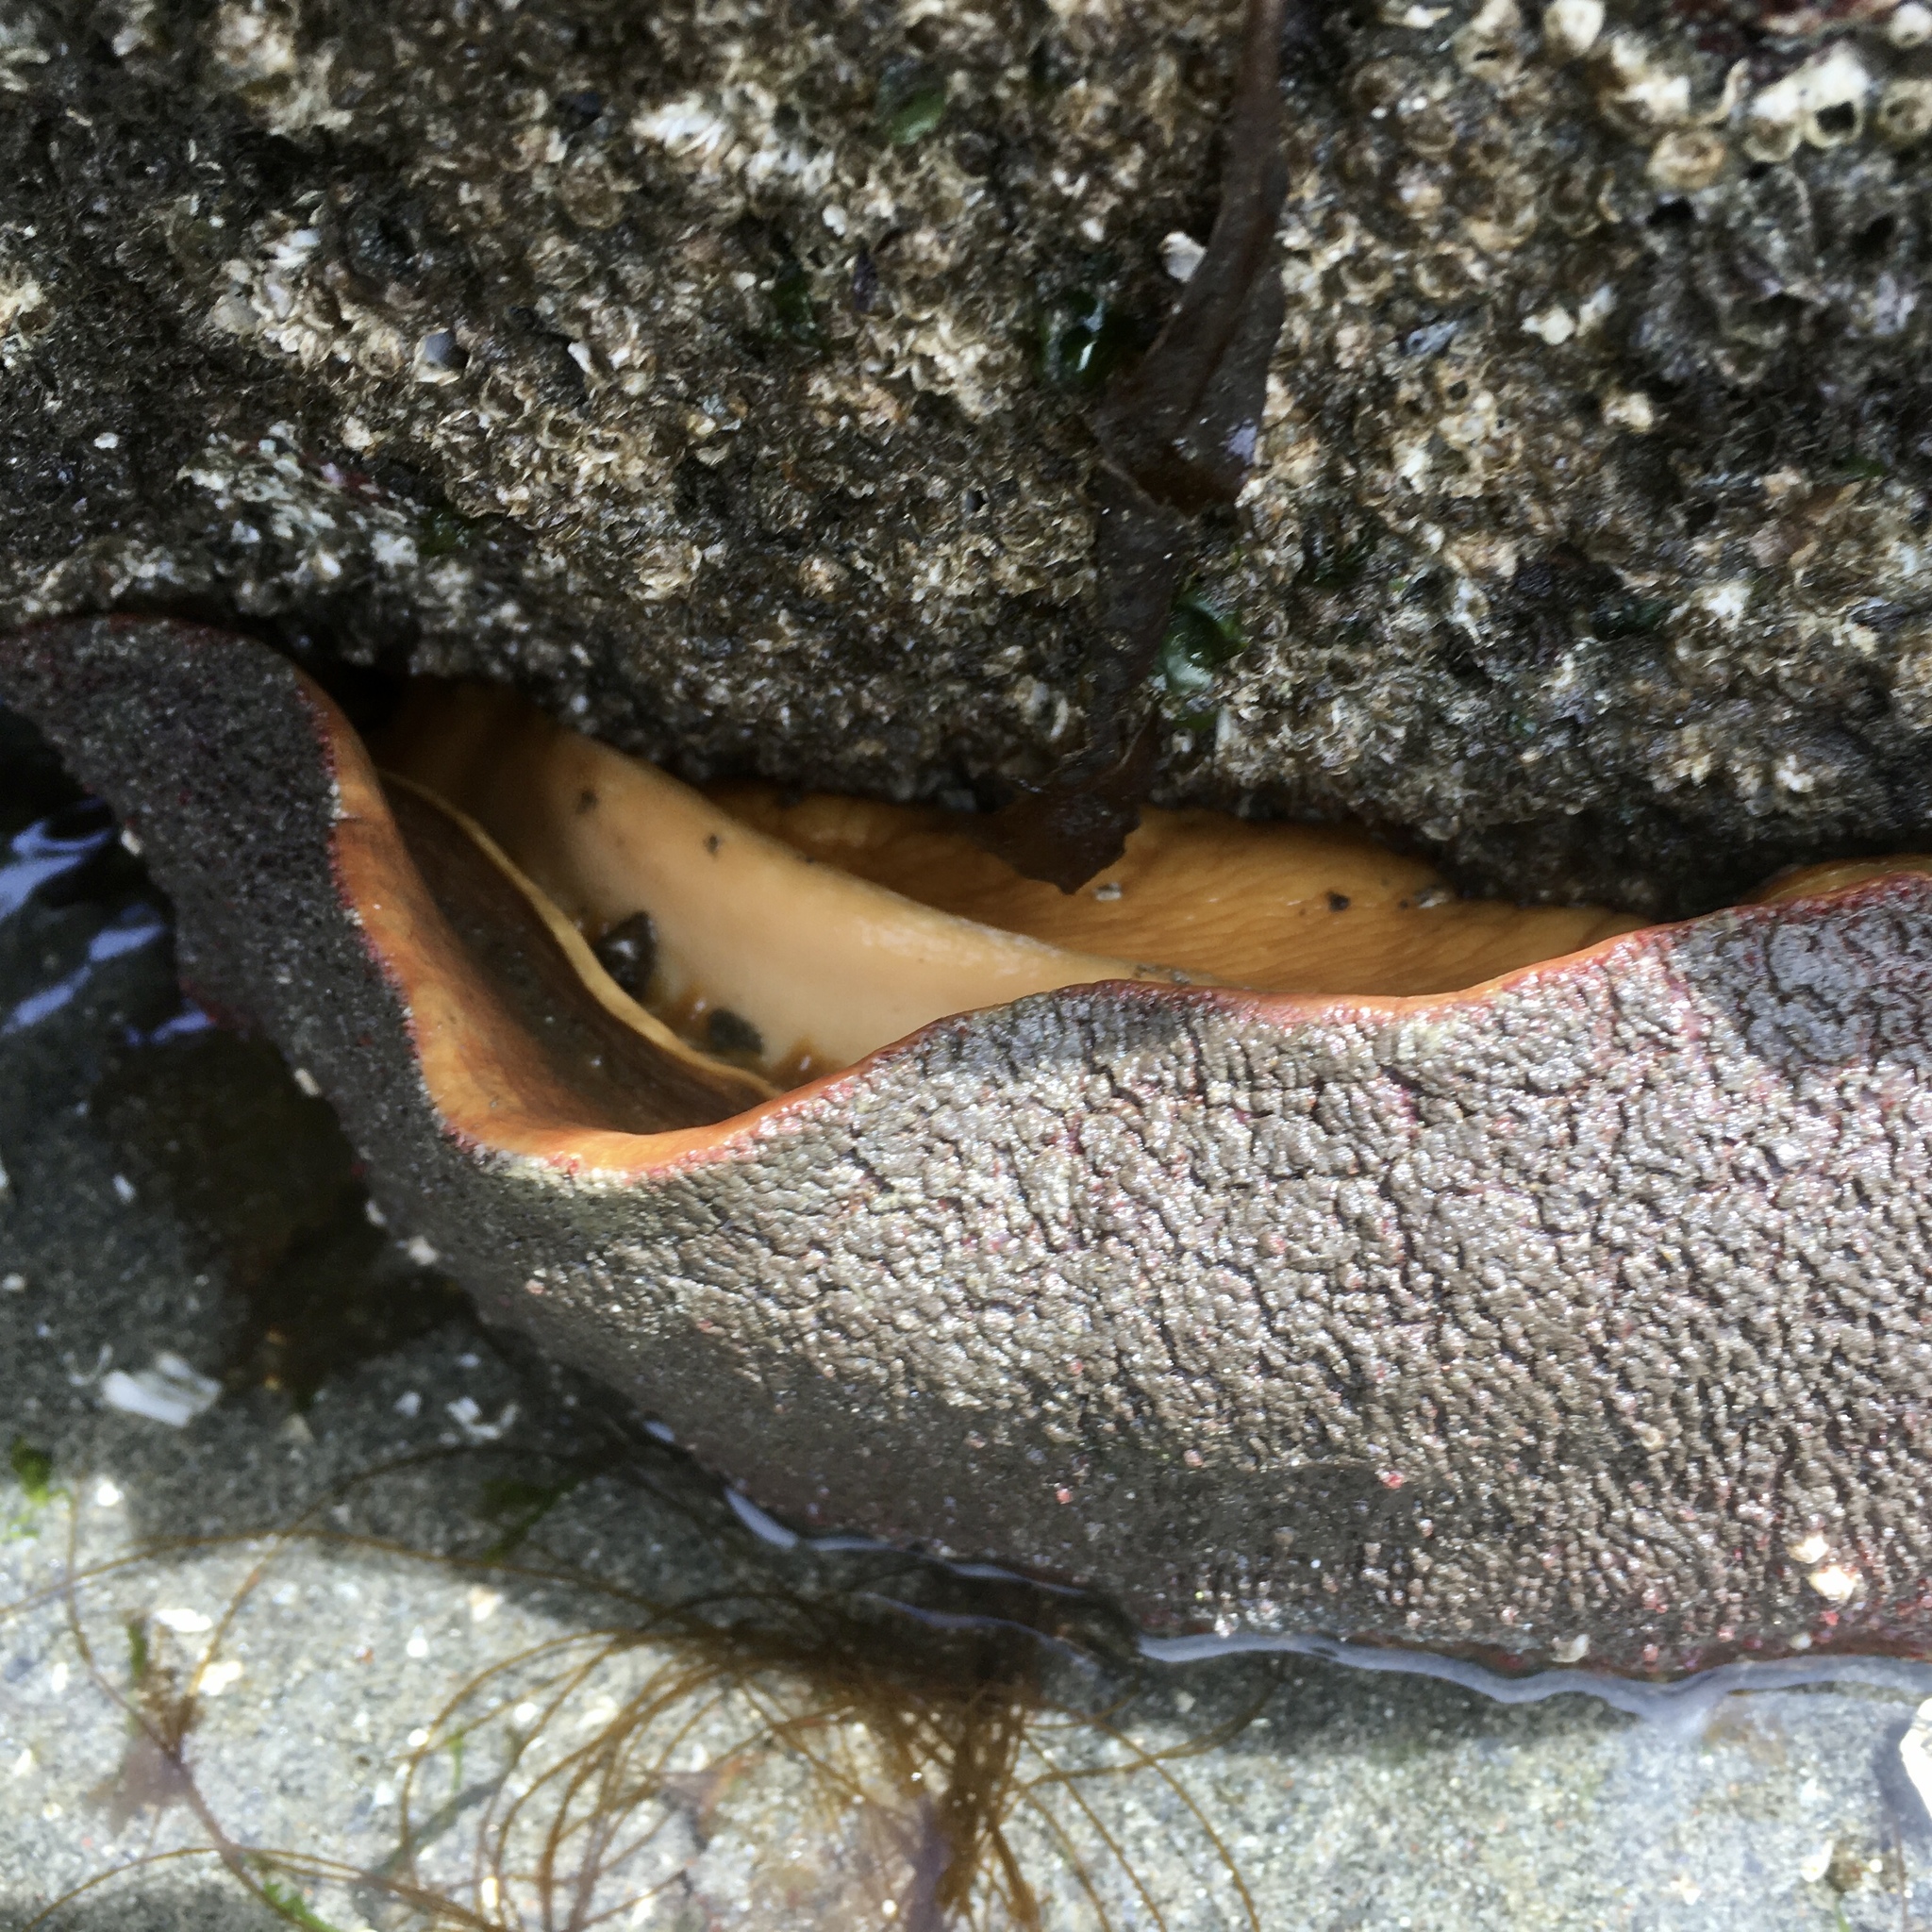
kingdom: Animalia
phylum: Mollusca
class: Polyplacophora
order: Chitonida
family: Acanthochitonidae
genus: Cryptochiton
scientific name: Cryptochiton stelleri
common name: Giant pacific chiton
